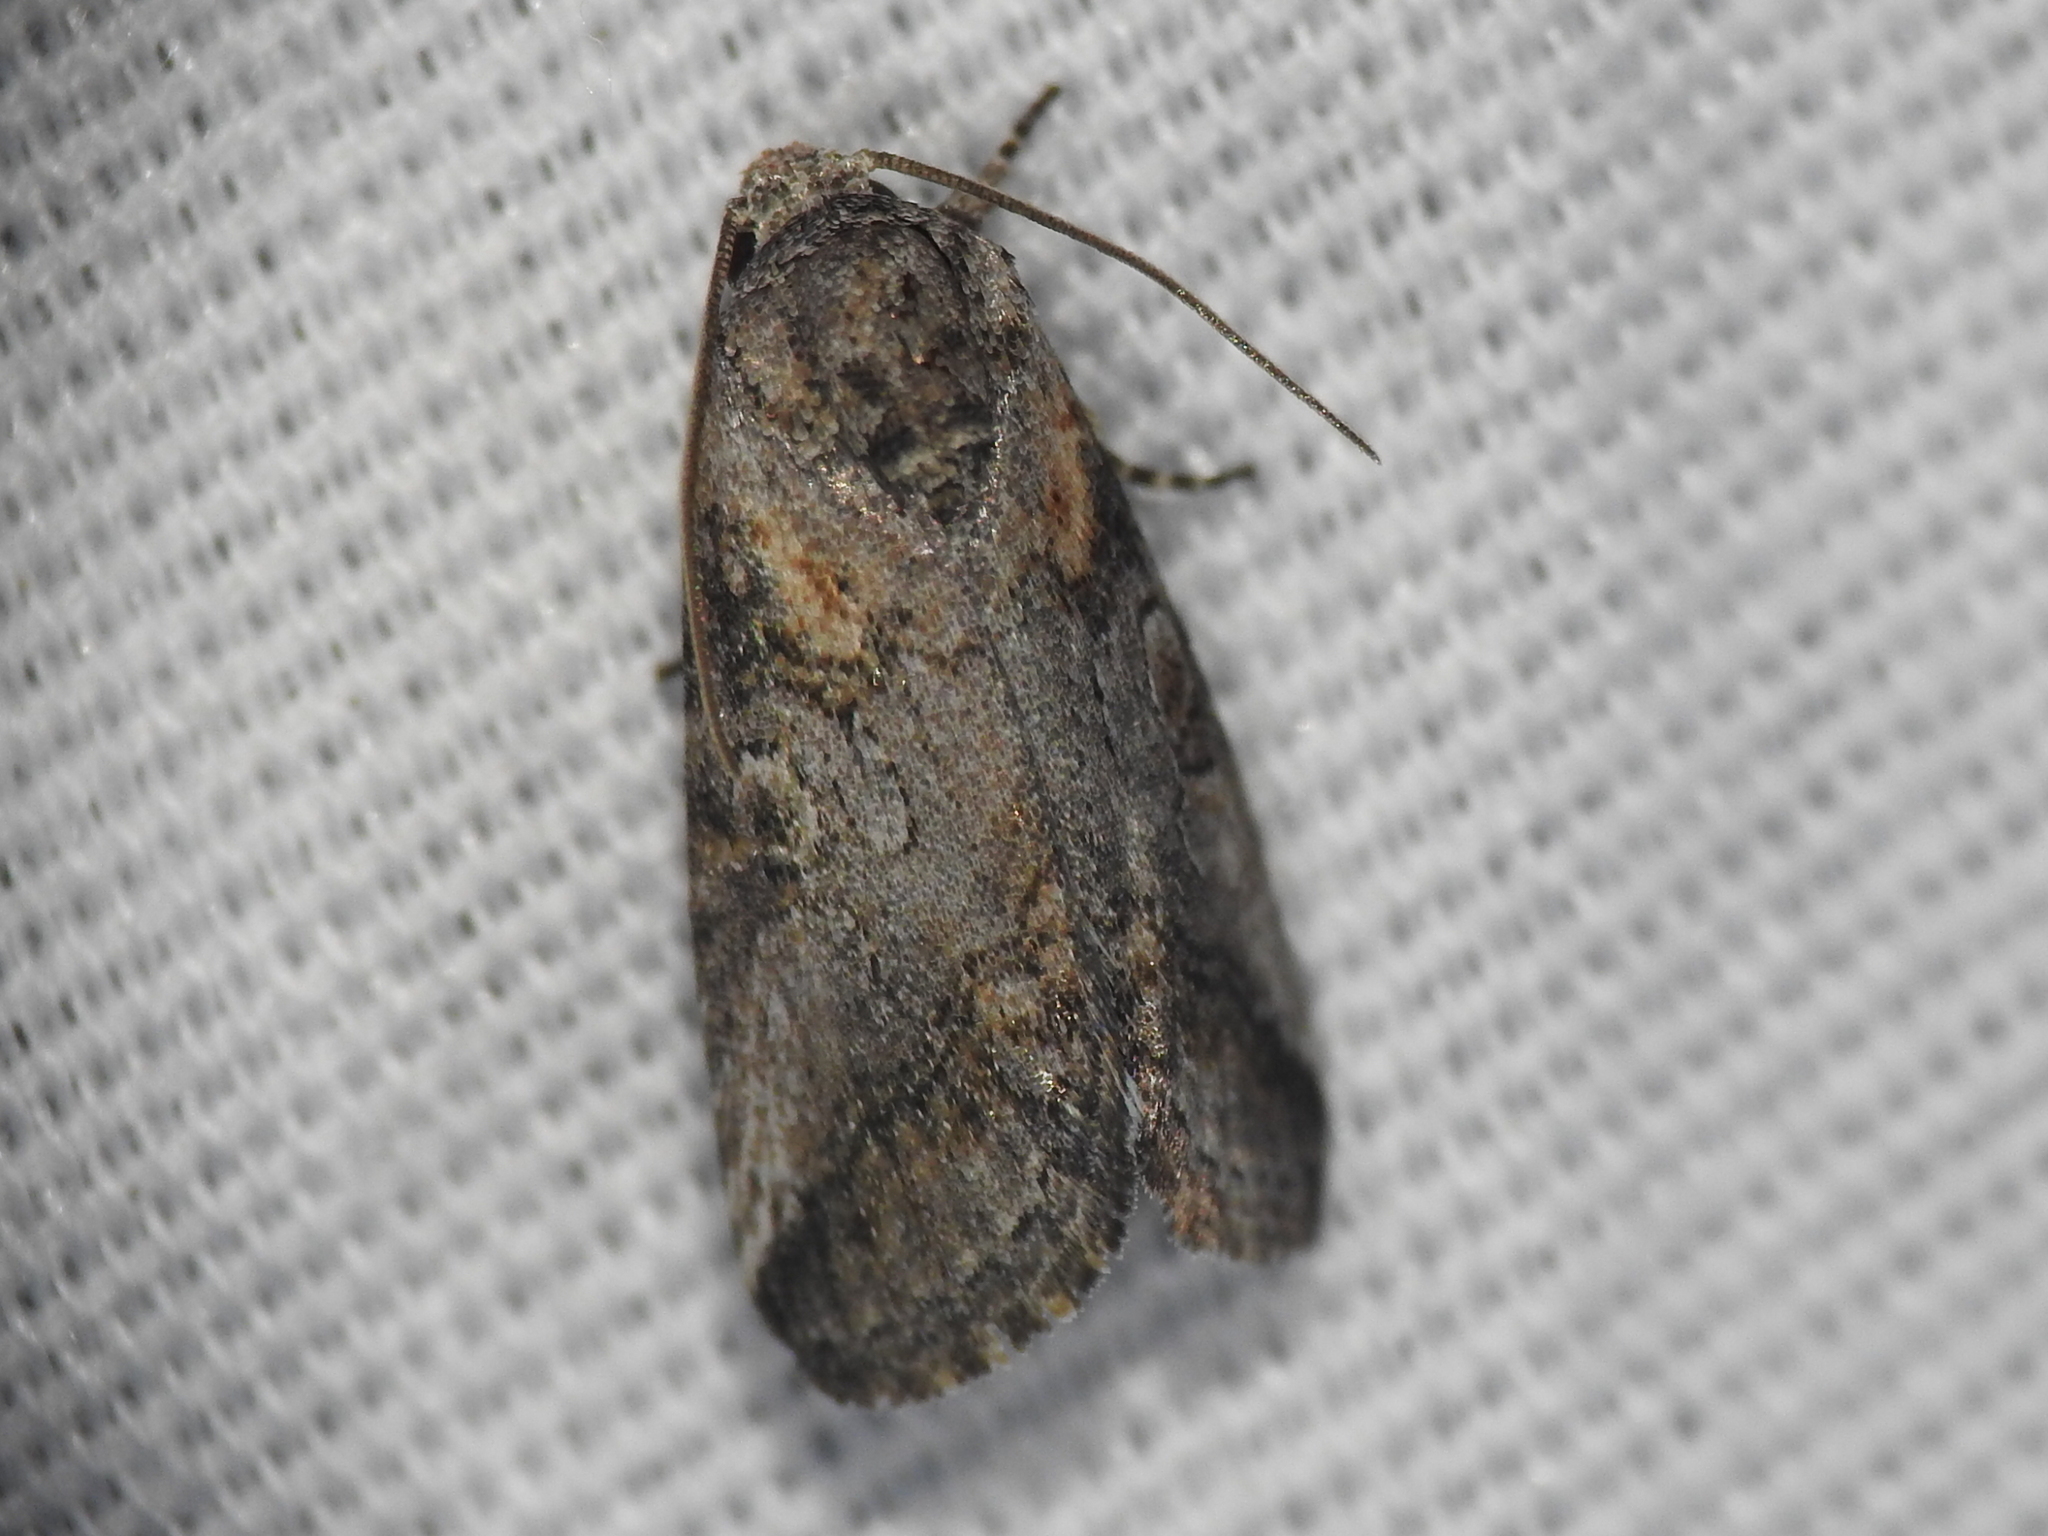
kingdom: Animalia
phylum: Arthropoda
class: Insecta
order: Lepidoptera
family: Noctuidae
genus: Aleptina
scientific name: Aleptina inca
